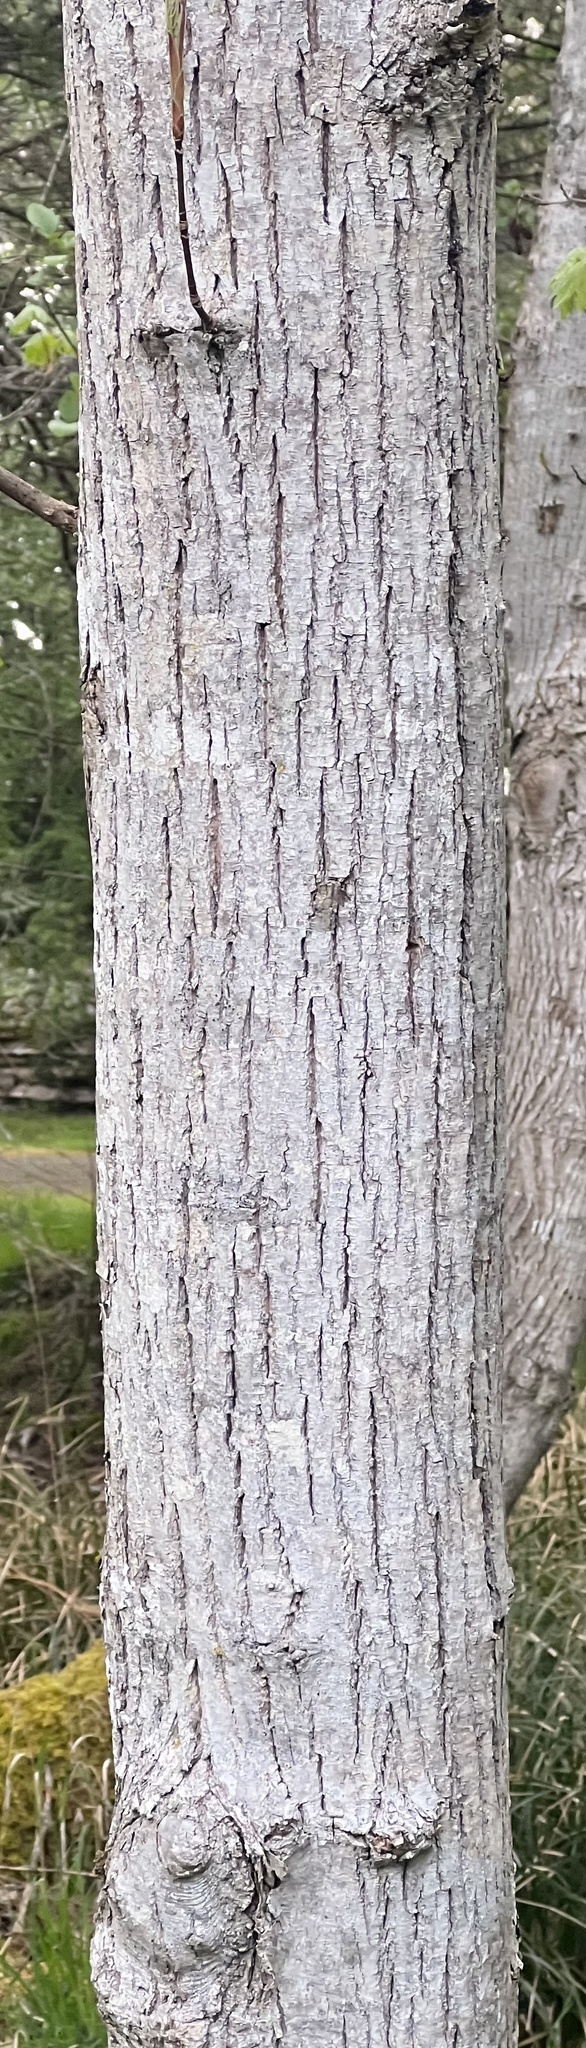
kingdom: Plantae
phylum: Tracheophyta
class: Magnoliopsida
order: Sapindales
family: Sapindaceae
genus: Acer
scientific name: Acer macrophyllum
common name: Oregon maple
